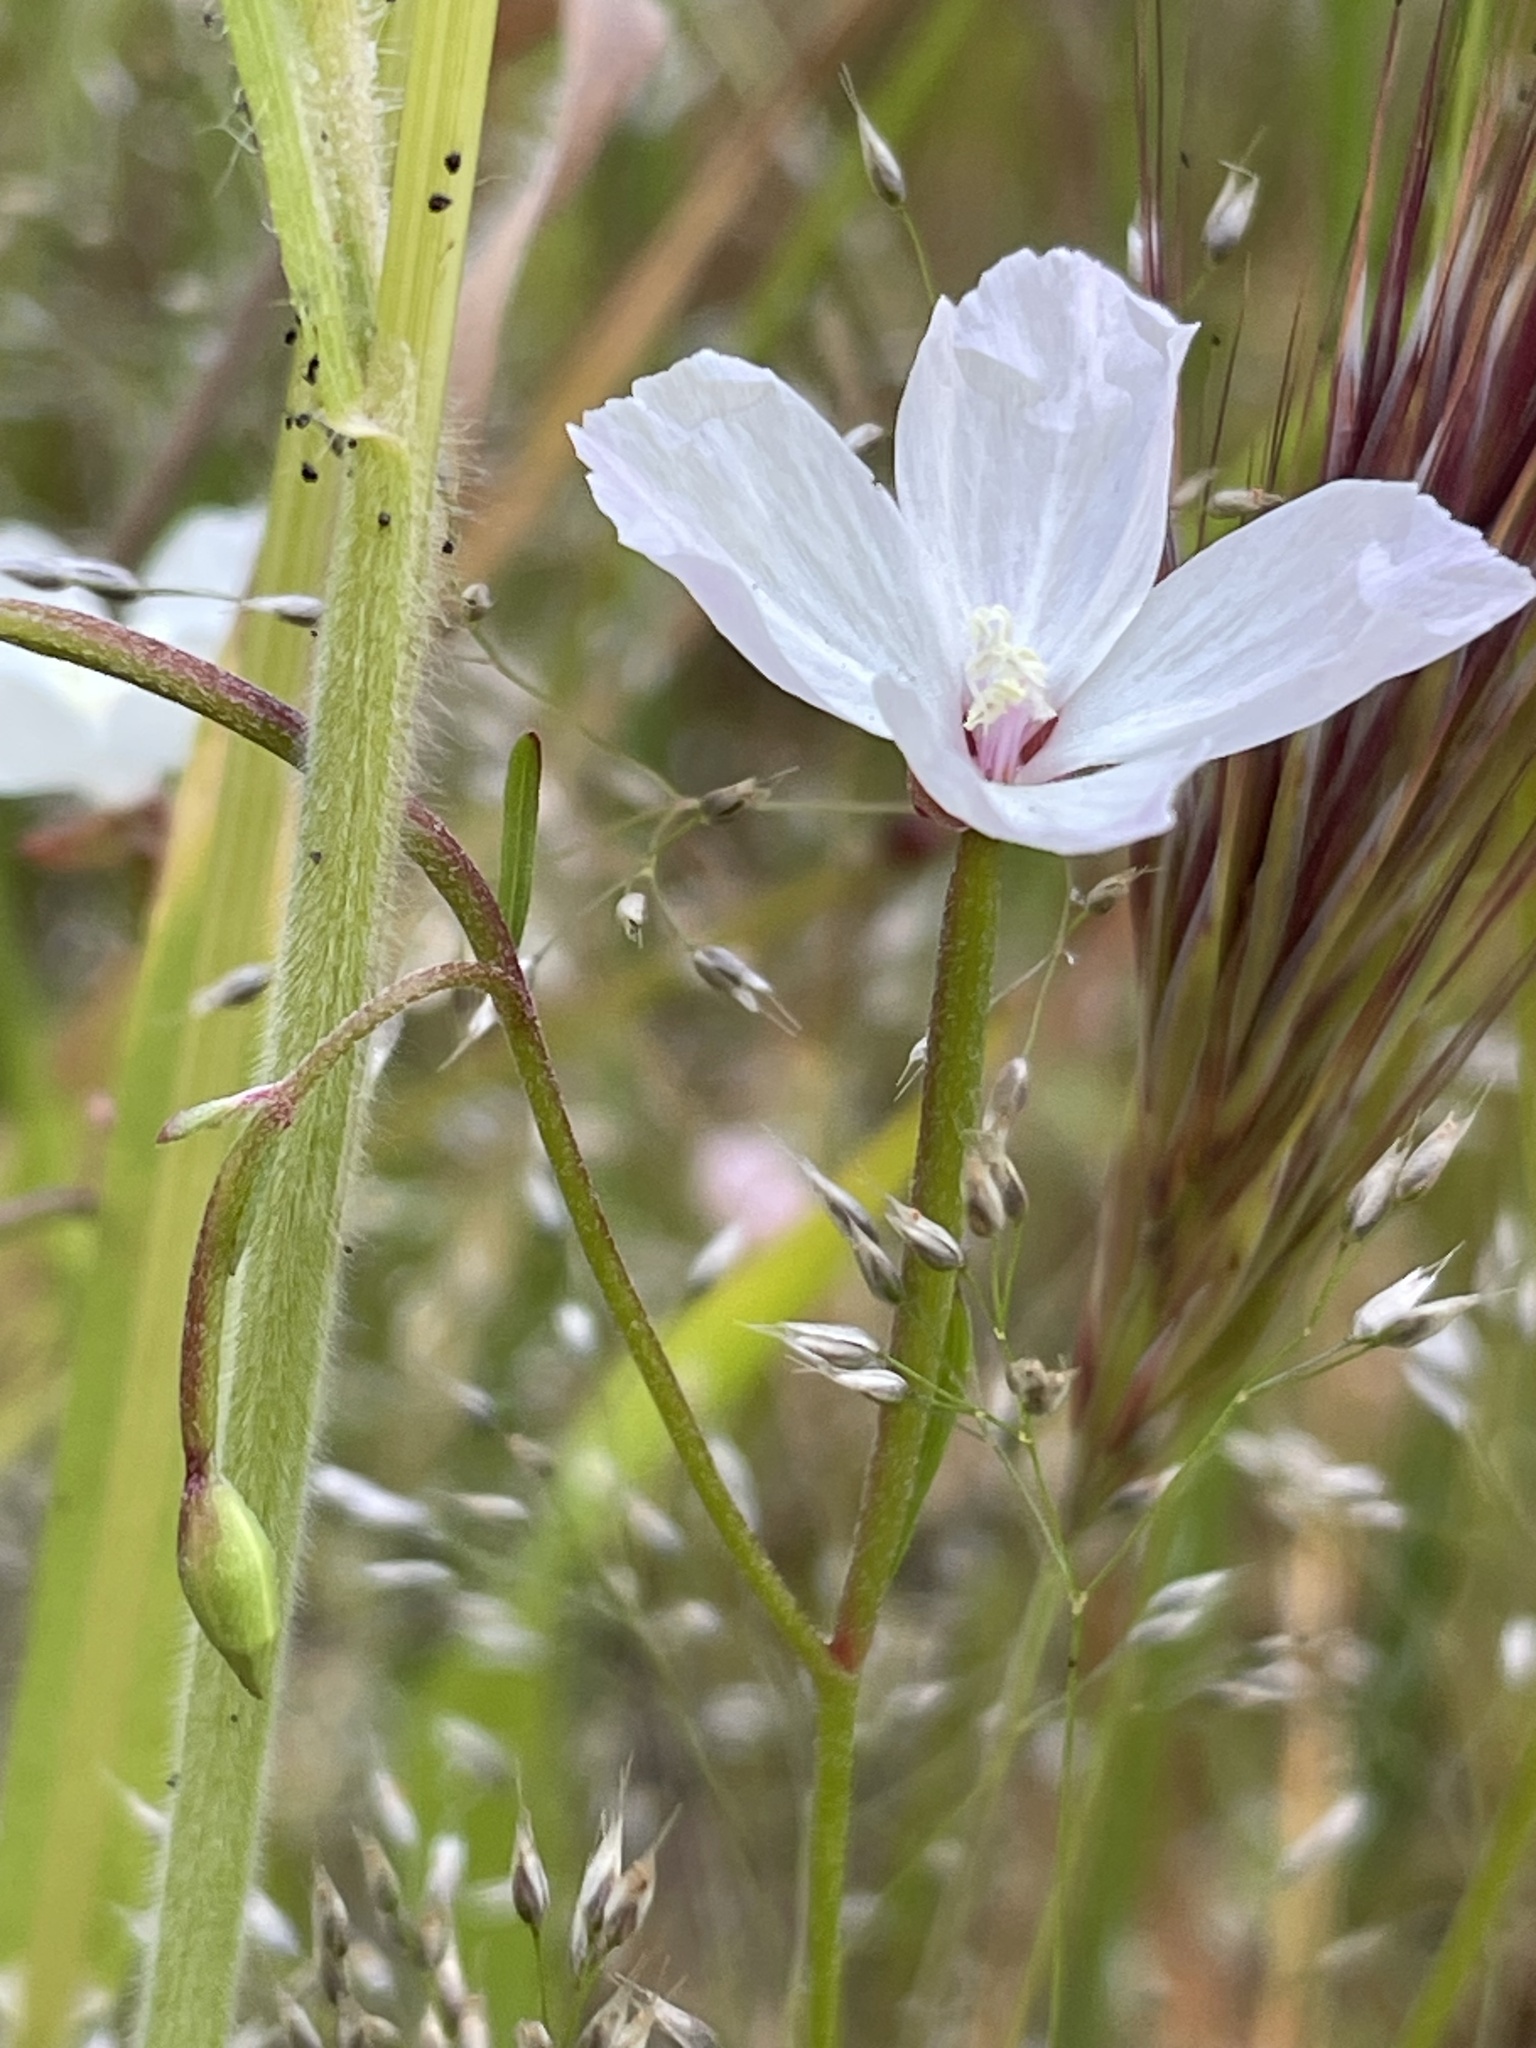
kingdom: Plantae
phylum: Tracheophyta
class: Magnoliopsida
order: Myrtales
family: Onagraceae
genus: Clarkia
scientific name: Clarkia epilobioides
